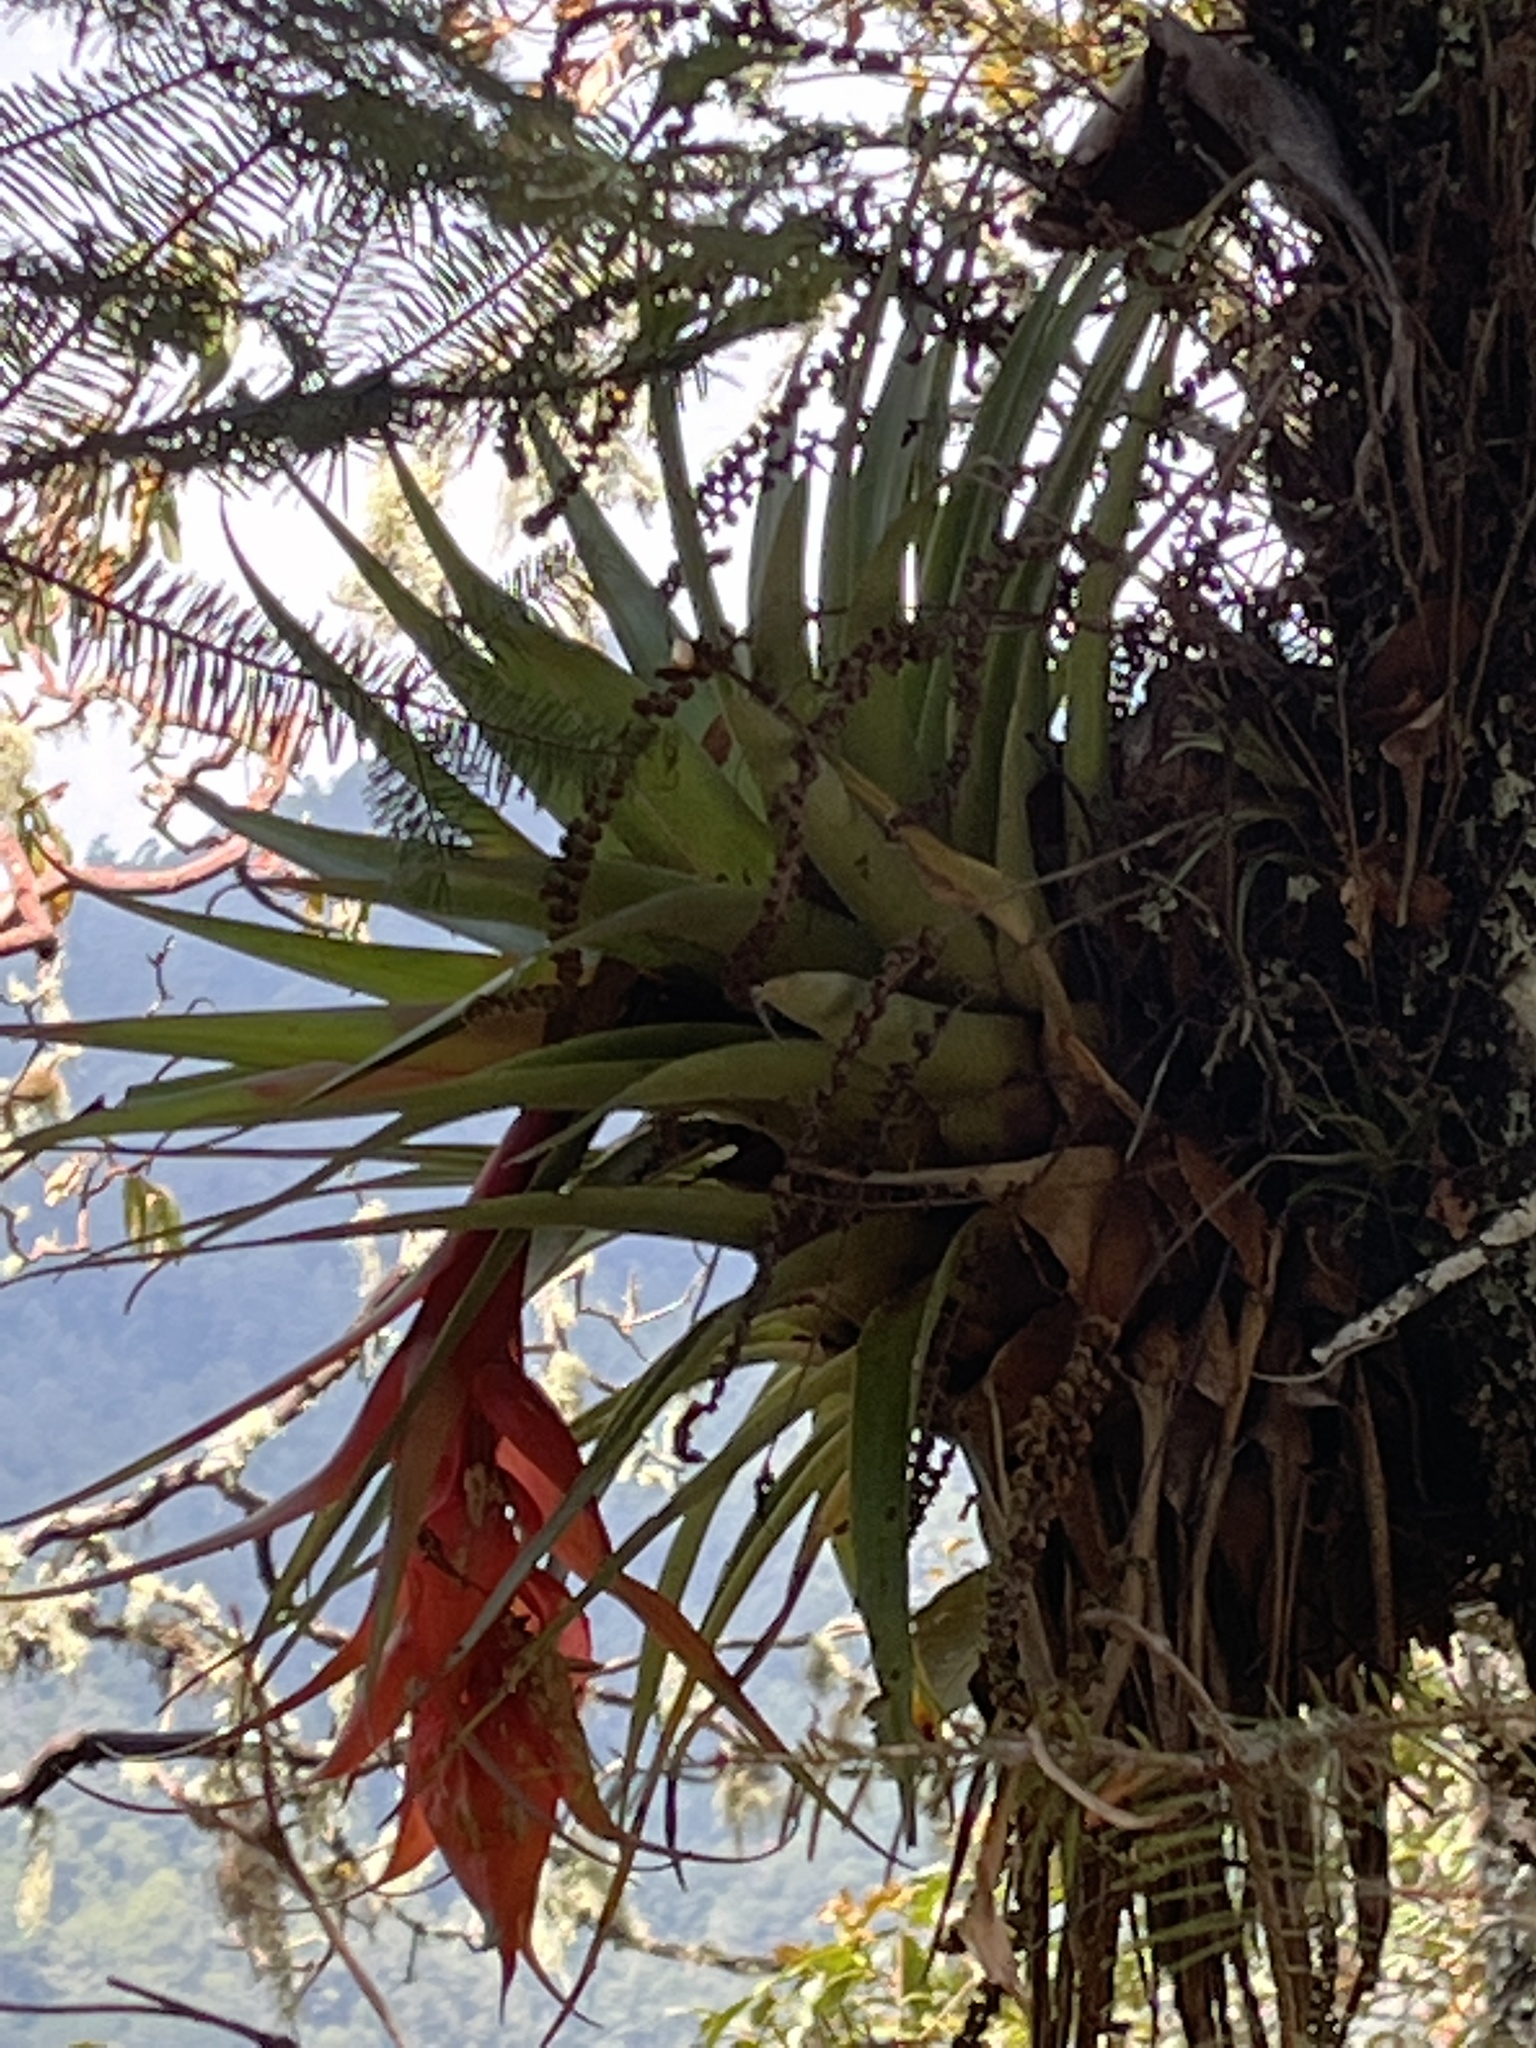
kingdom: Plantae
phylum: Tracheophyta
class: Liliopsida
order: Poales
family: Bromeliaceae
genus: Tillandsia
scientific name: Tillandsia violacea
